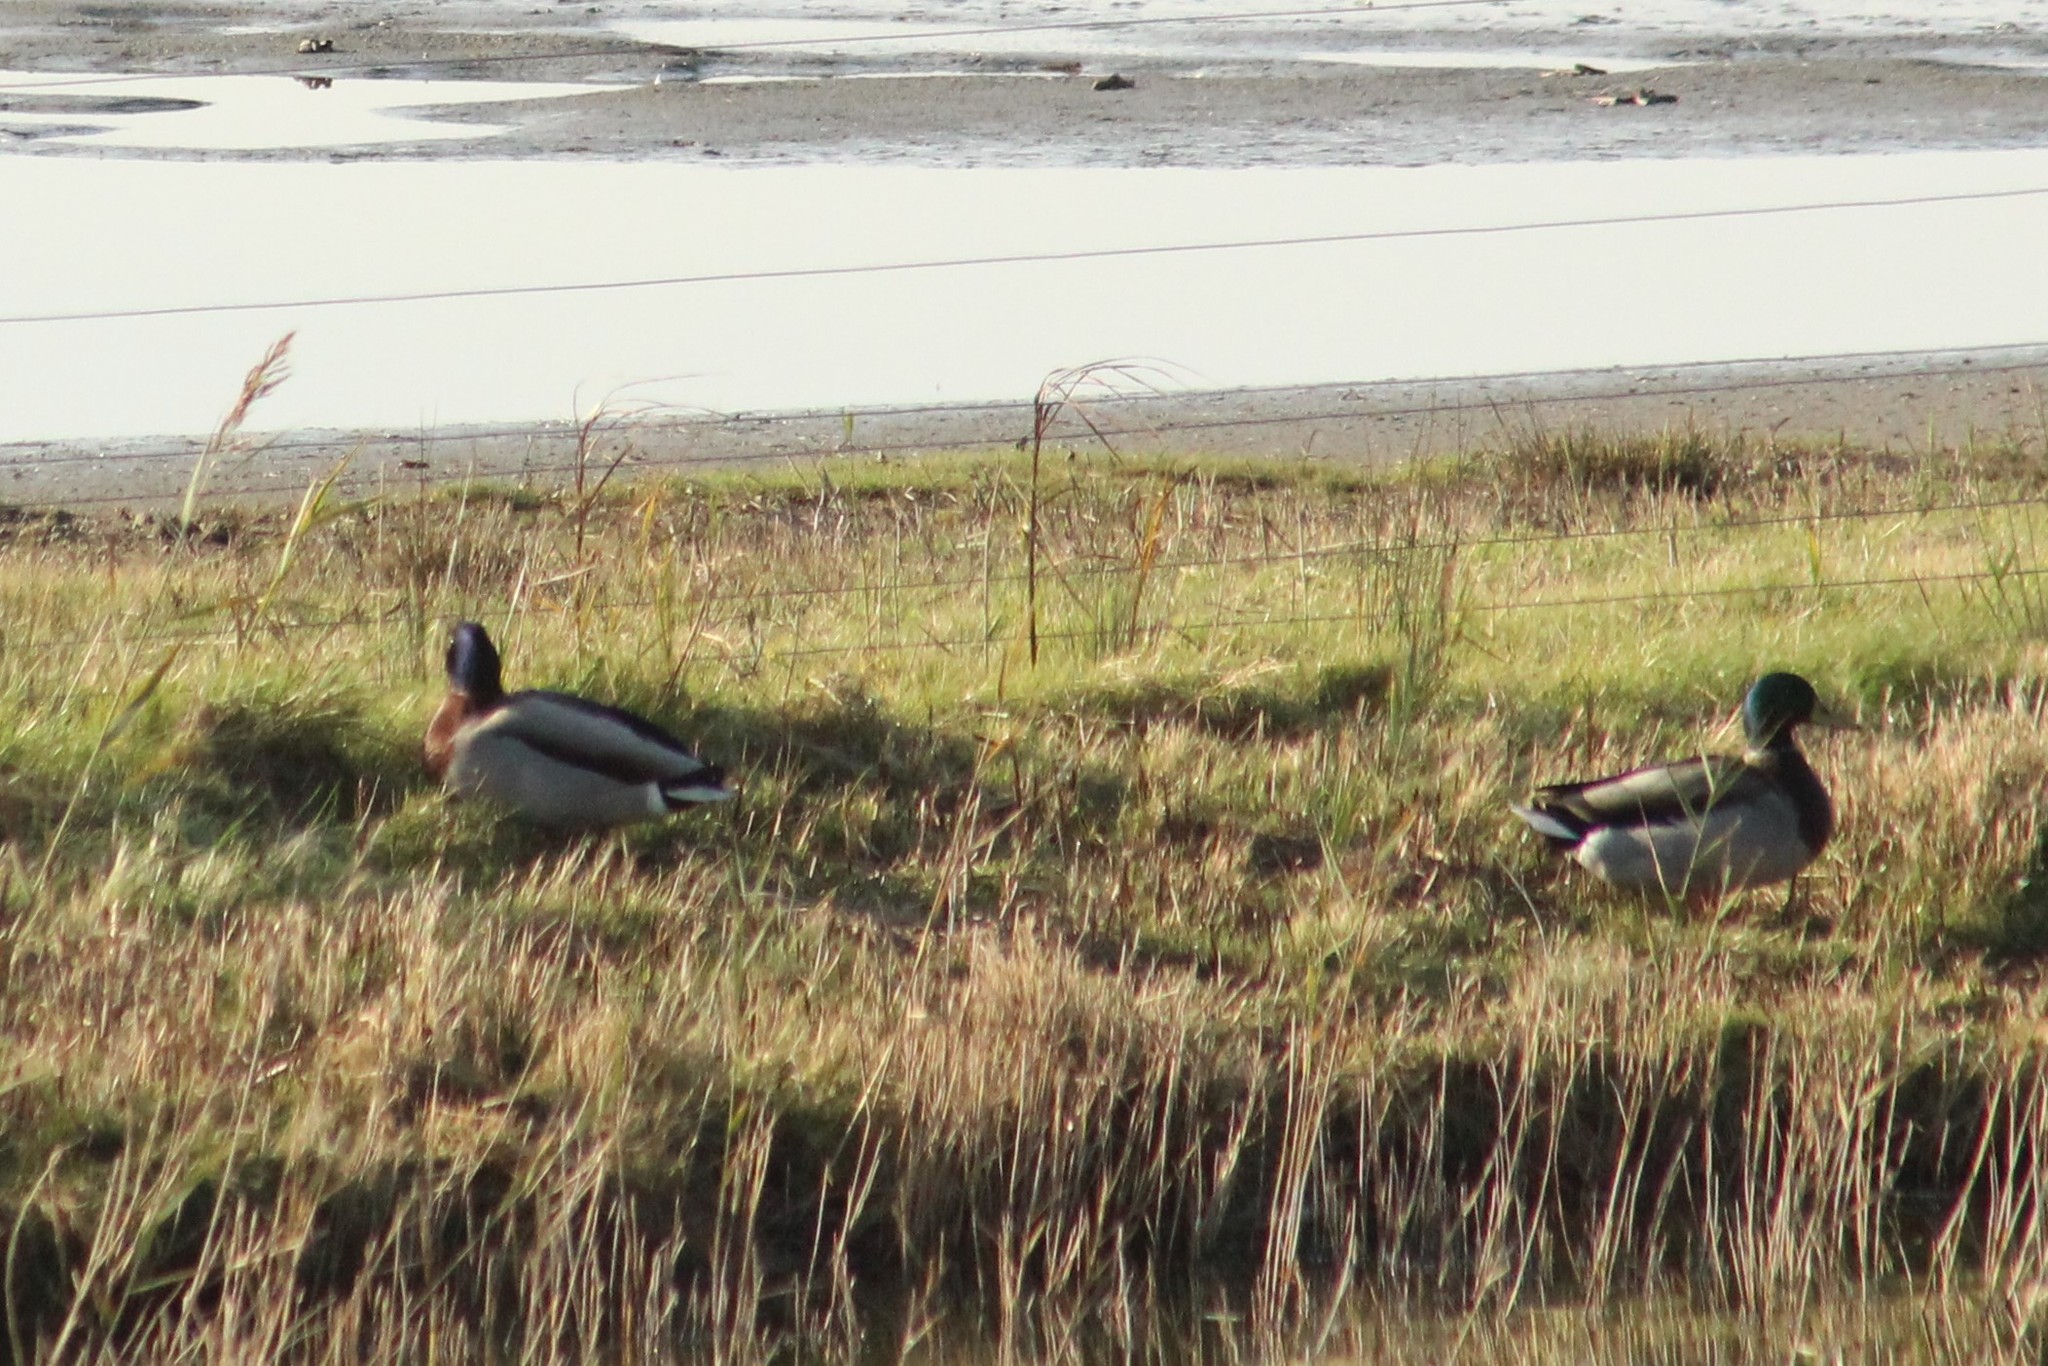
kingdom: Animalia
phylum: Chordata
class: Aves
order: Anseriformes
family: Anatidae
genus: Anas
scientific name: Anas platyrhynchos
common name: Mallard
